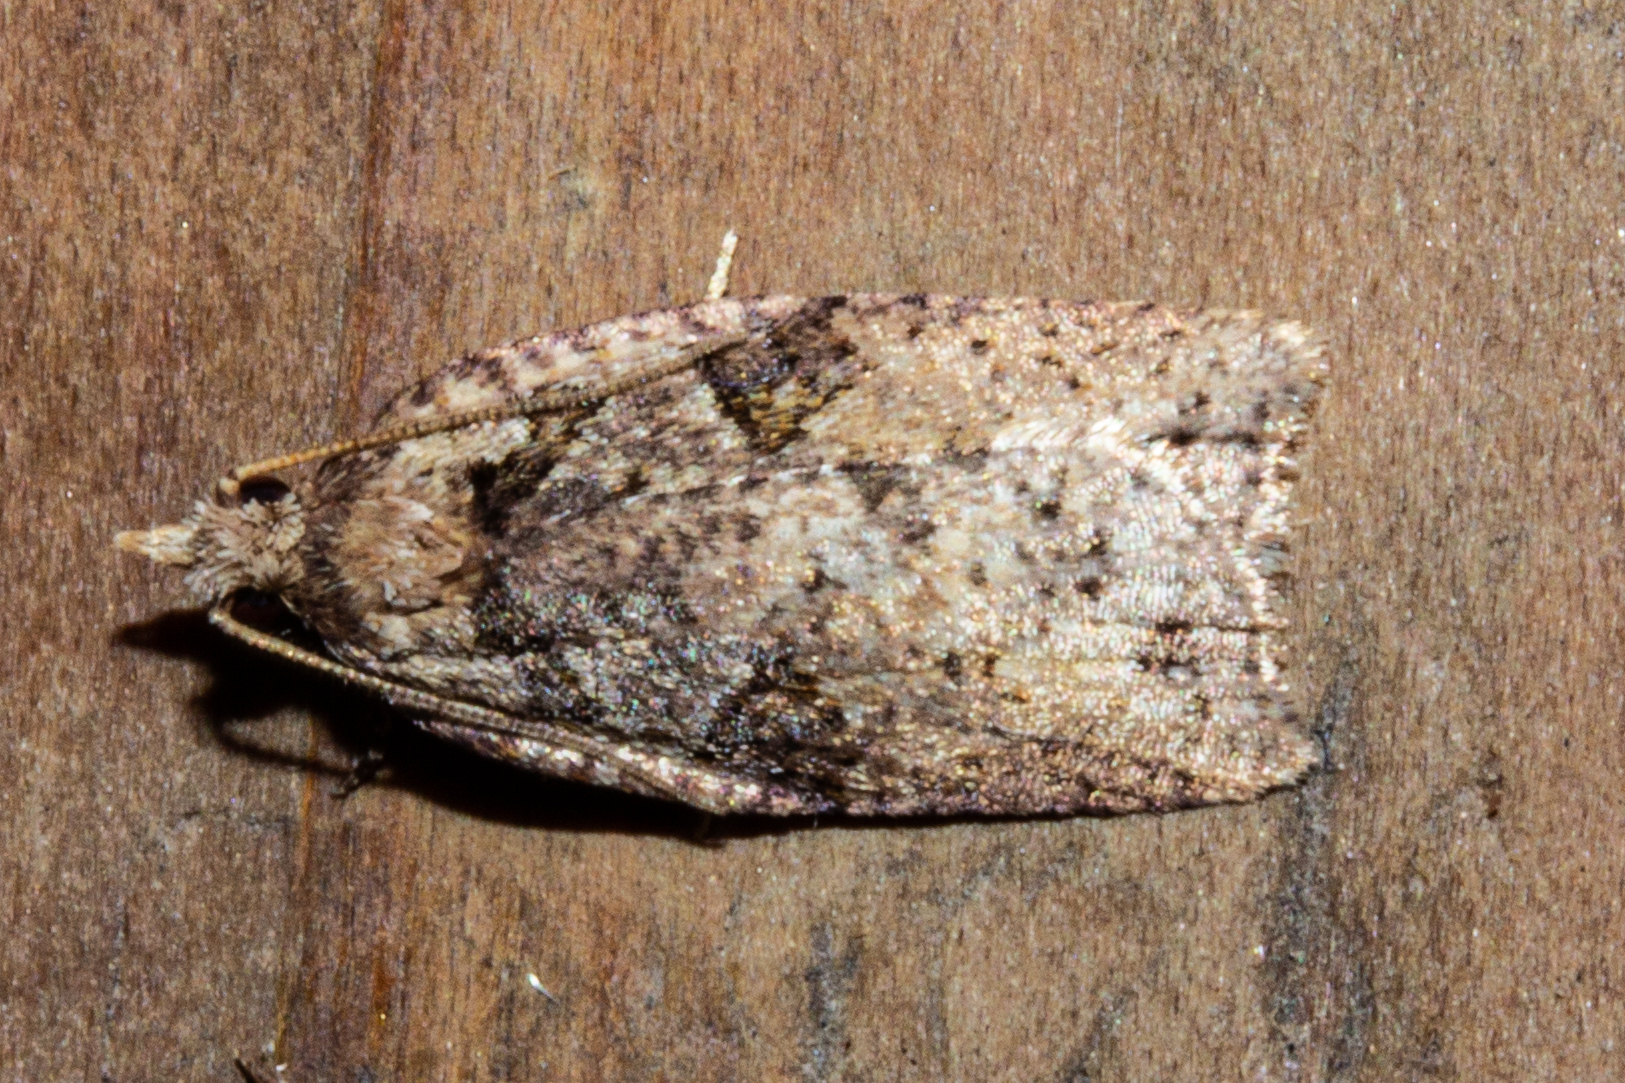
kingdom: Animalia
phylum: Arthropoda
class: Insecta
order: Lepidoptera
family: Tortricidae
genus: Ctenopseustis
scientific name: Ctenopseustis obliquana
